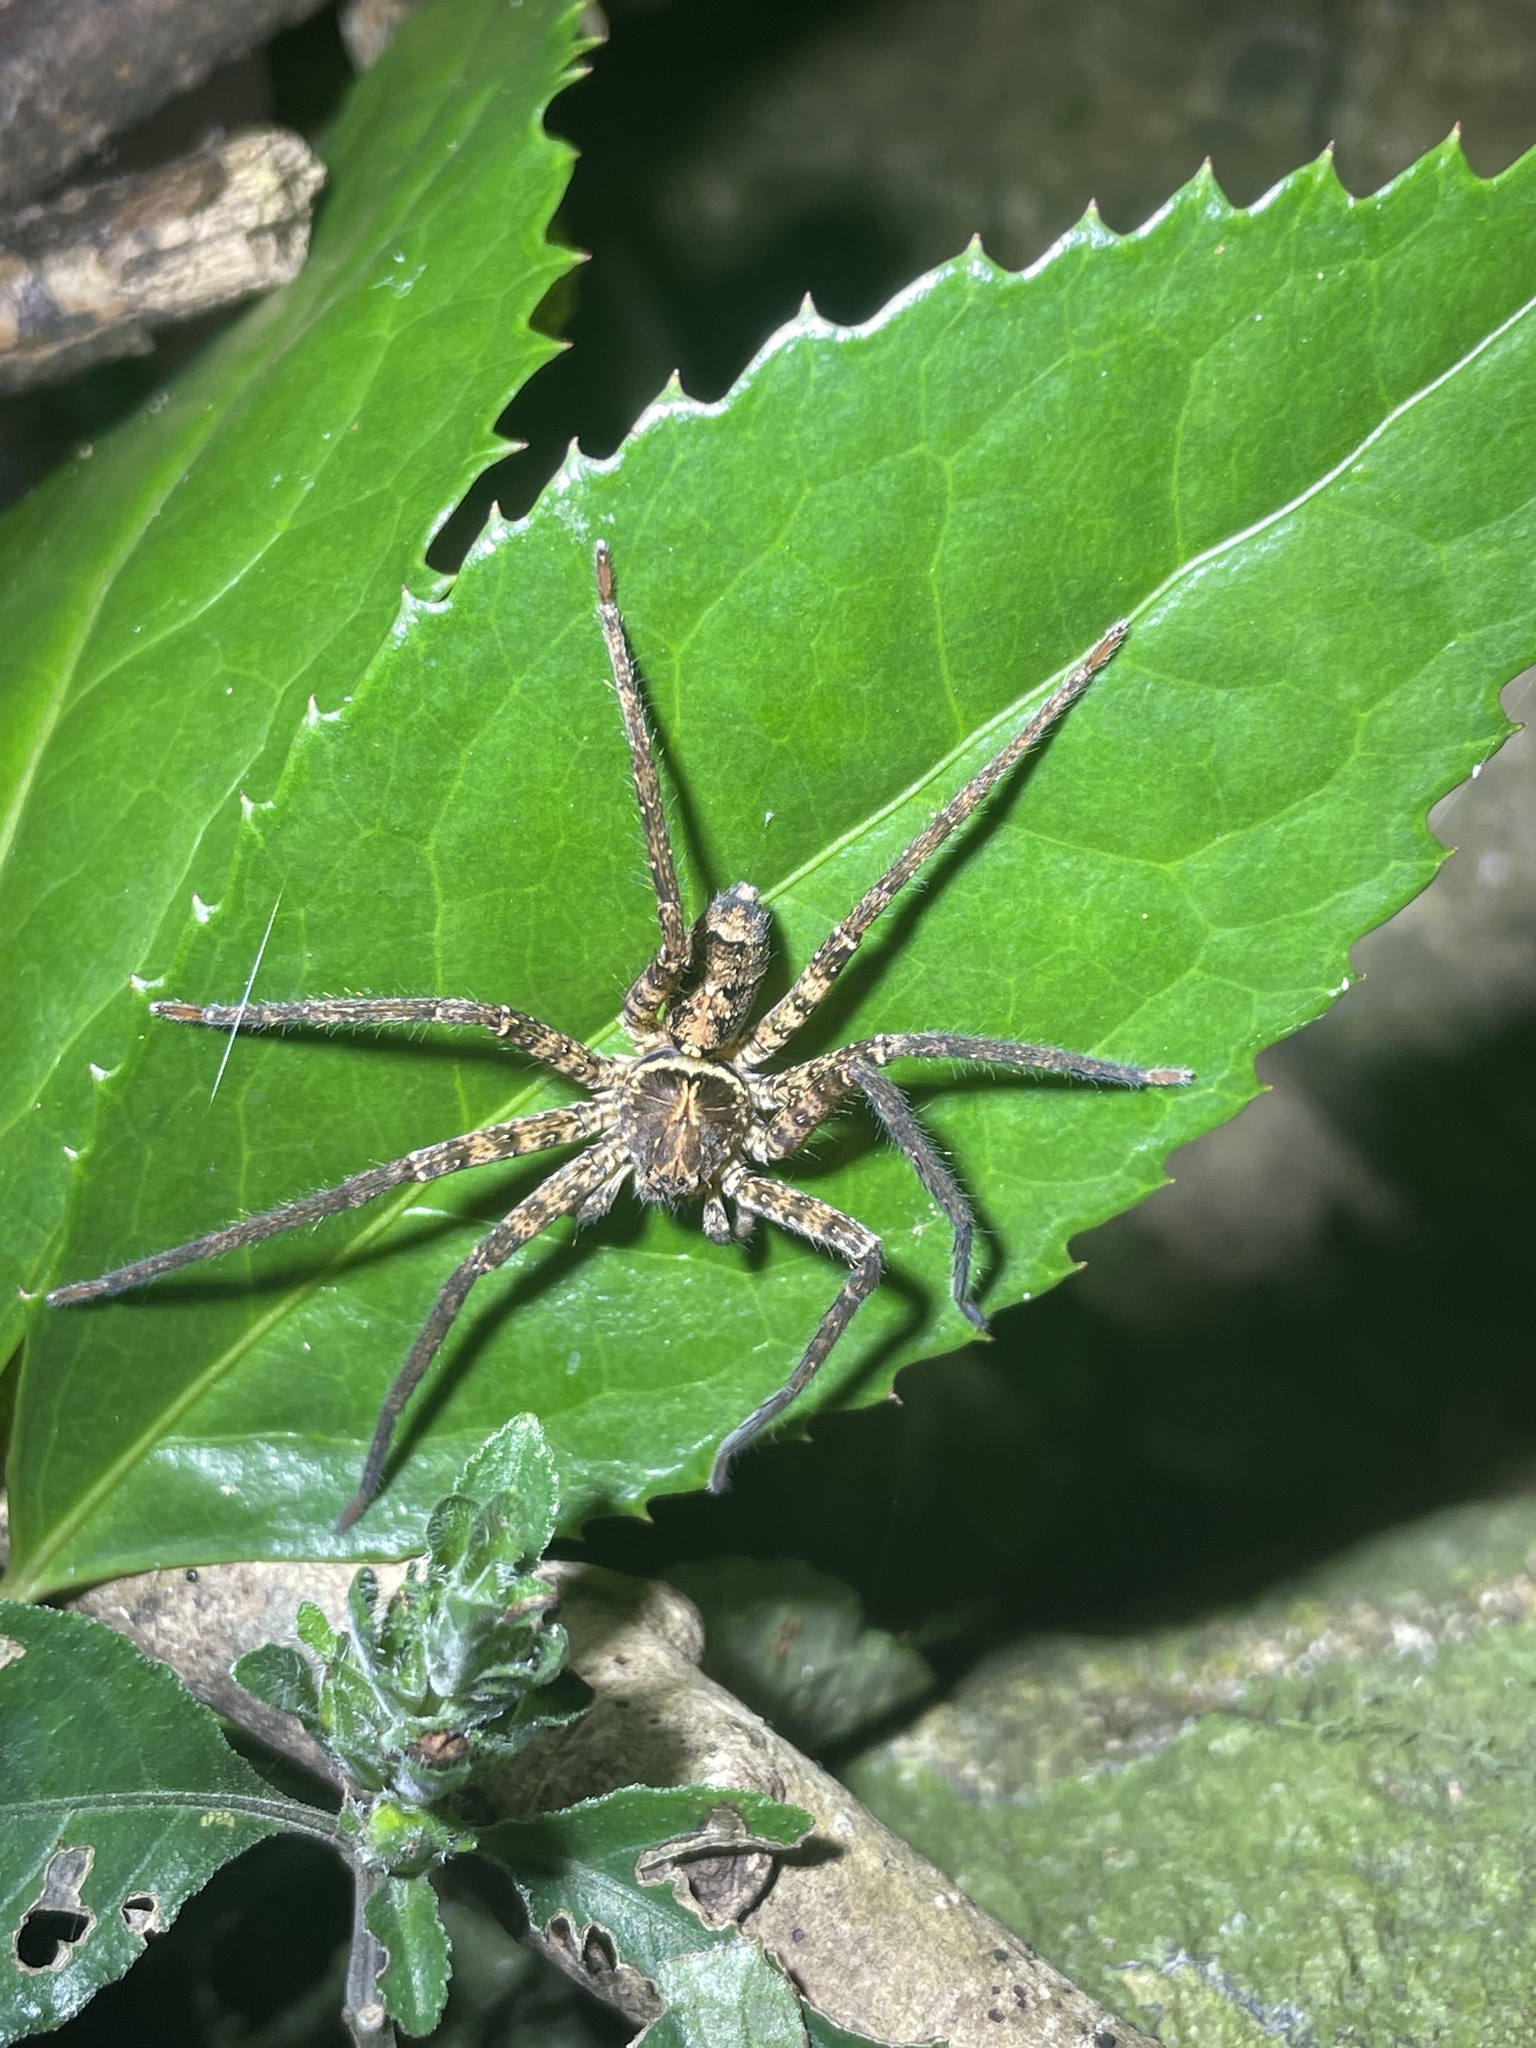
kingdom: Animalia
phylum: Arthropoda
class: Arachnida
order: Araneae
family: Sparassidae
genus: Heteropoda
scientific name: Heteropoda amphora
